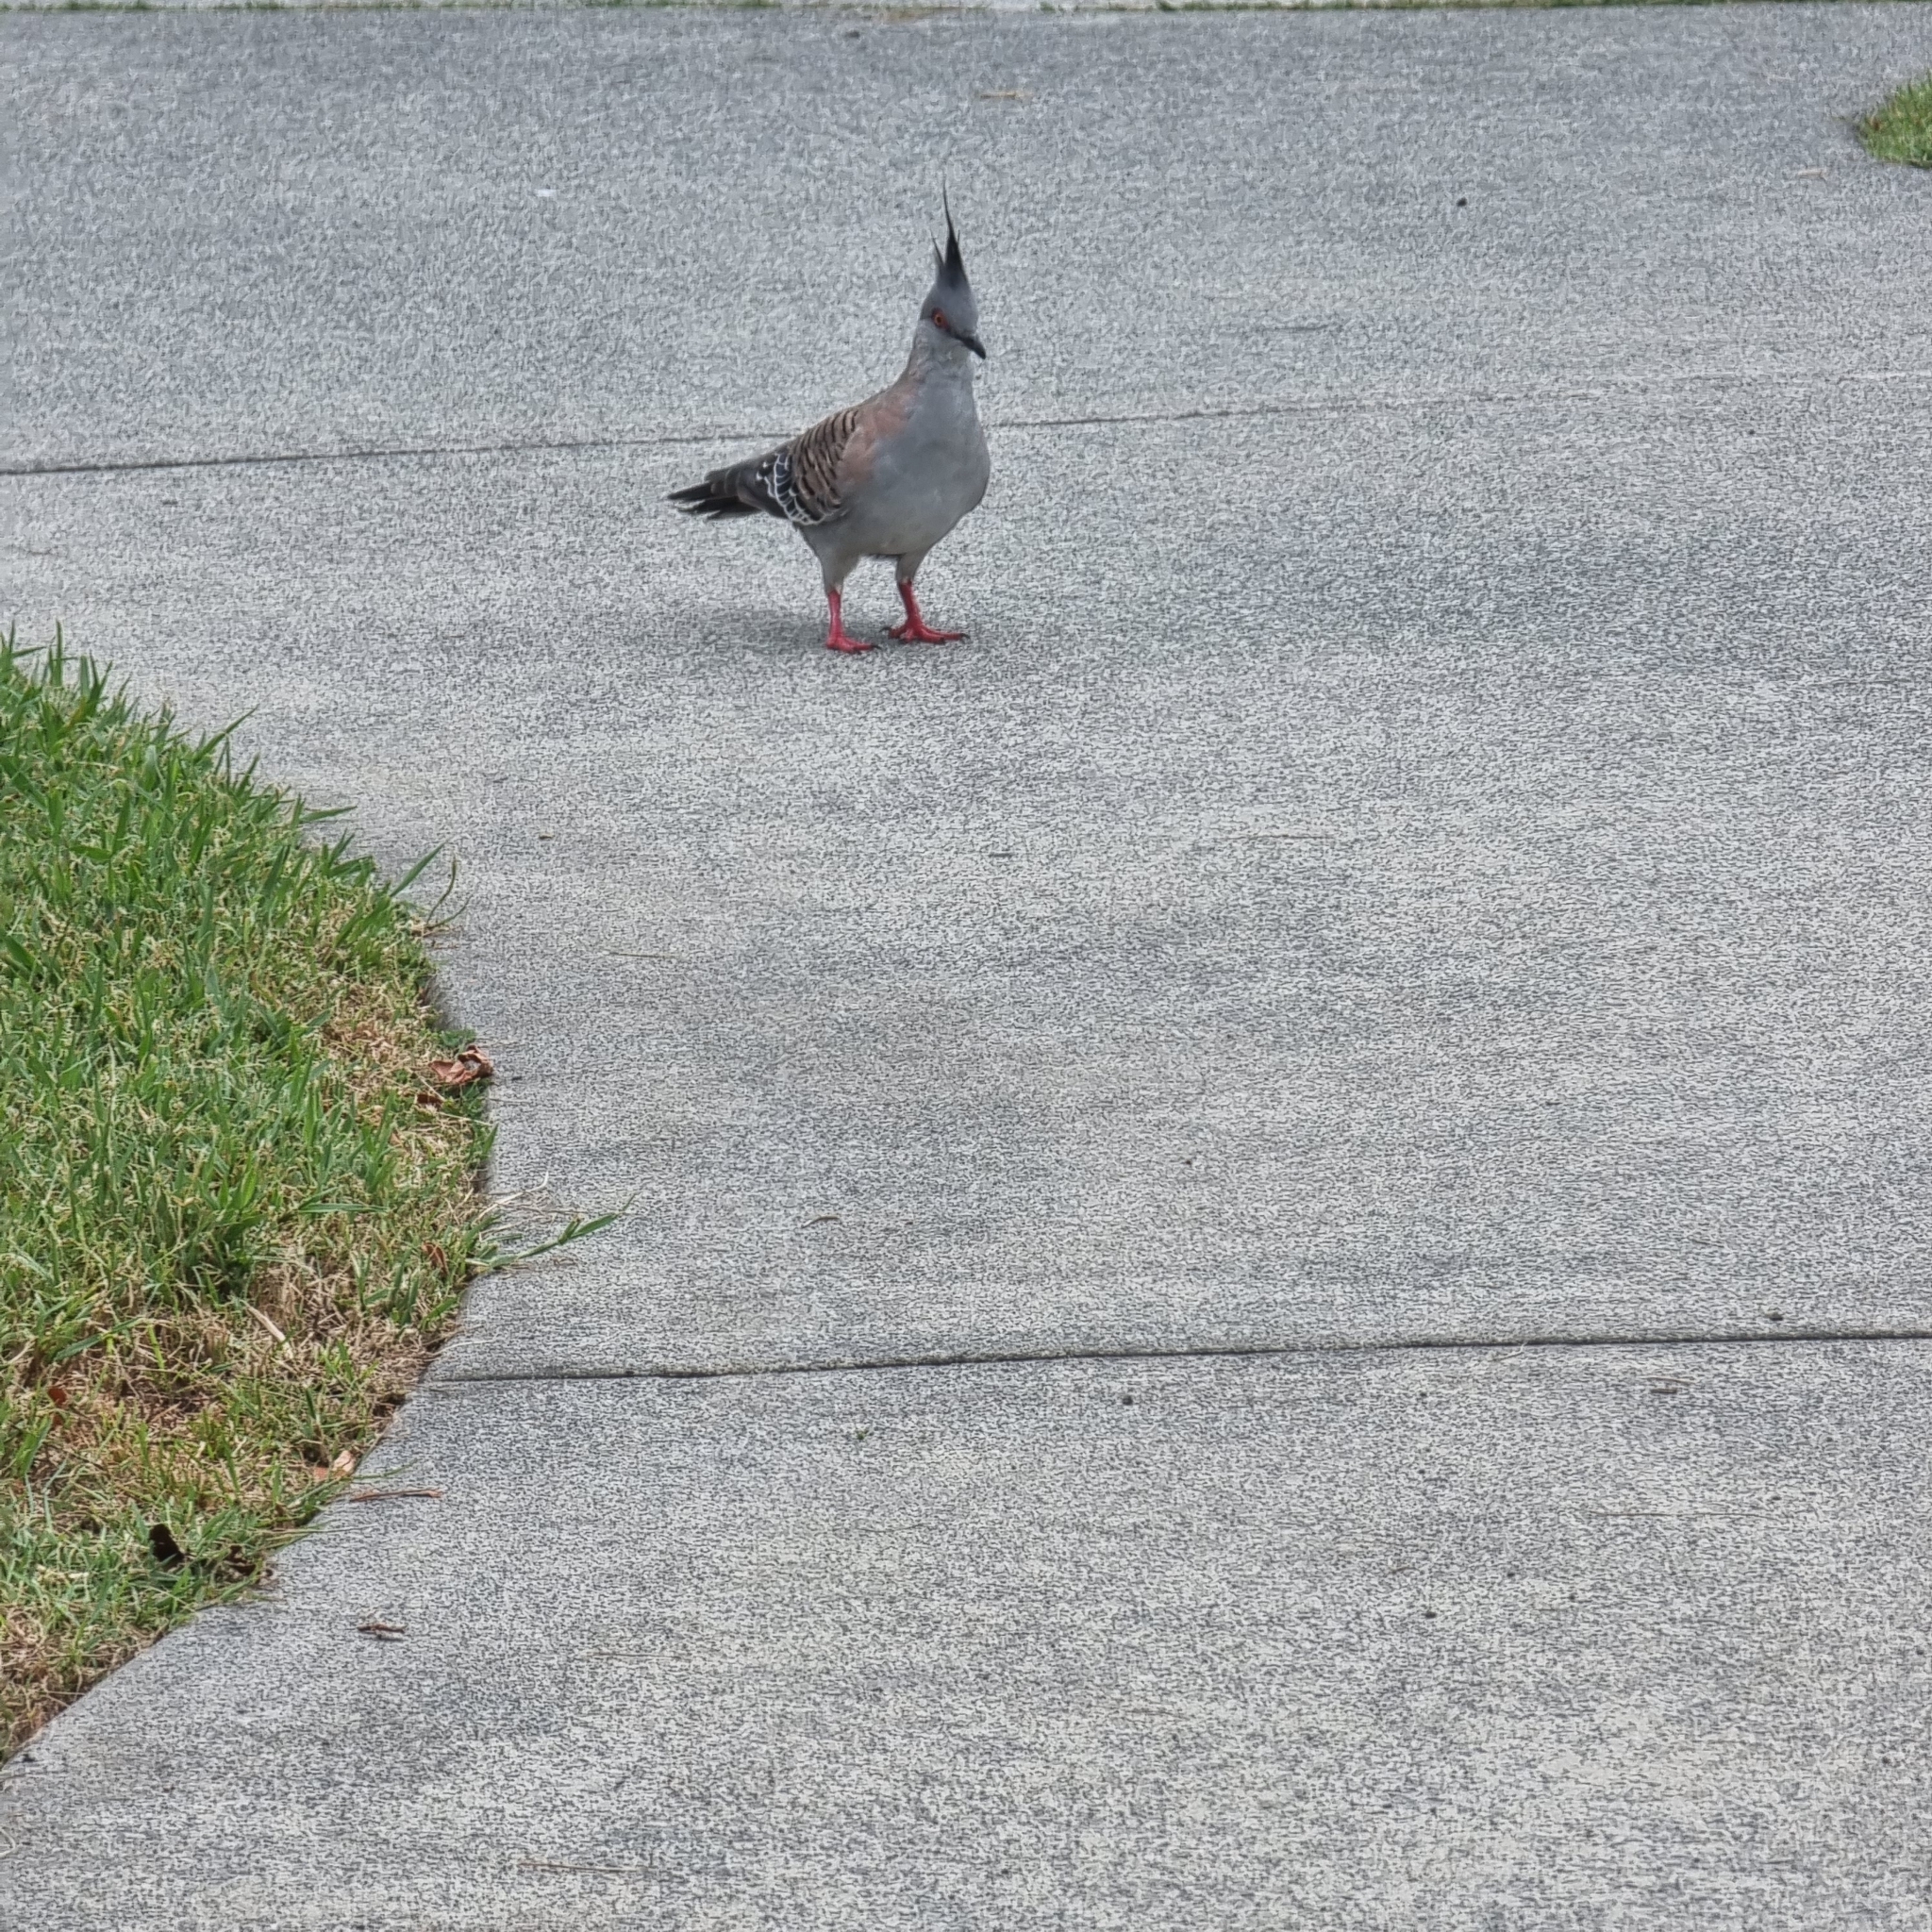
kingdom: Animalia
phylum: Chordata
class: Aves
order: Columbiformes
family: Columbidae
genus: Ocyphaps
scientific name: Ocyphaps lophotes
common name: Crested pigeon
